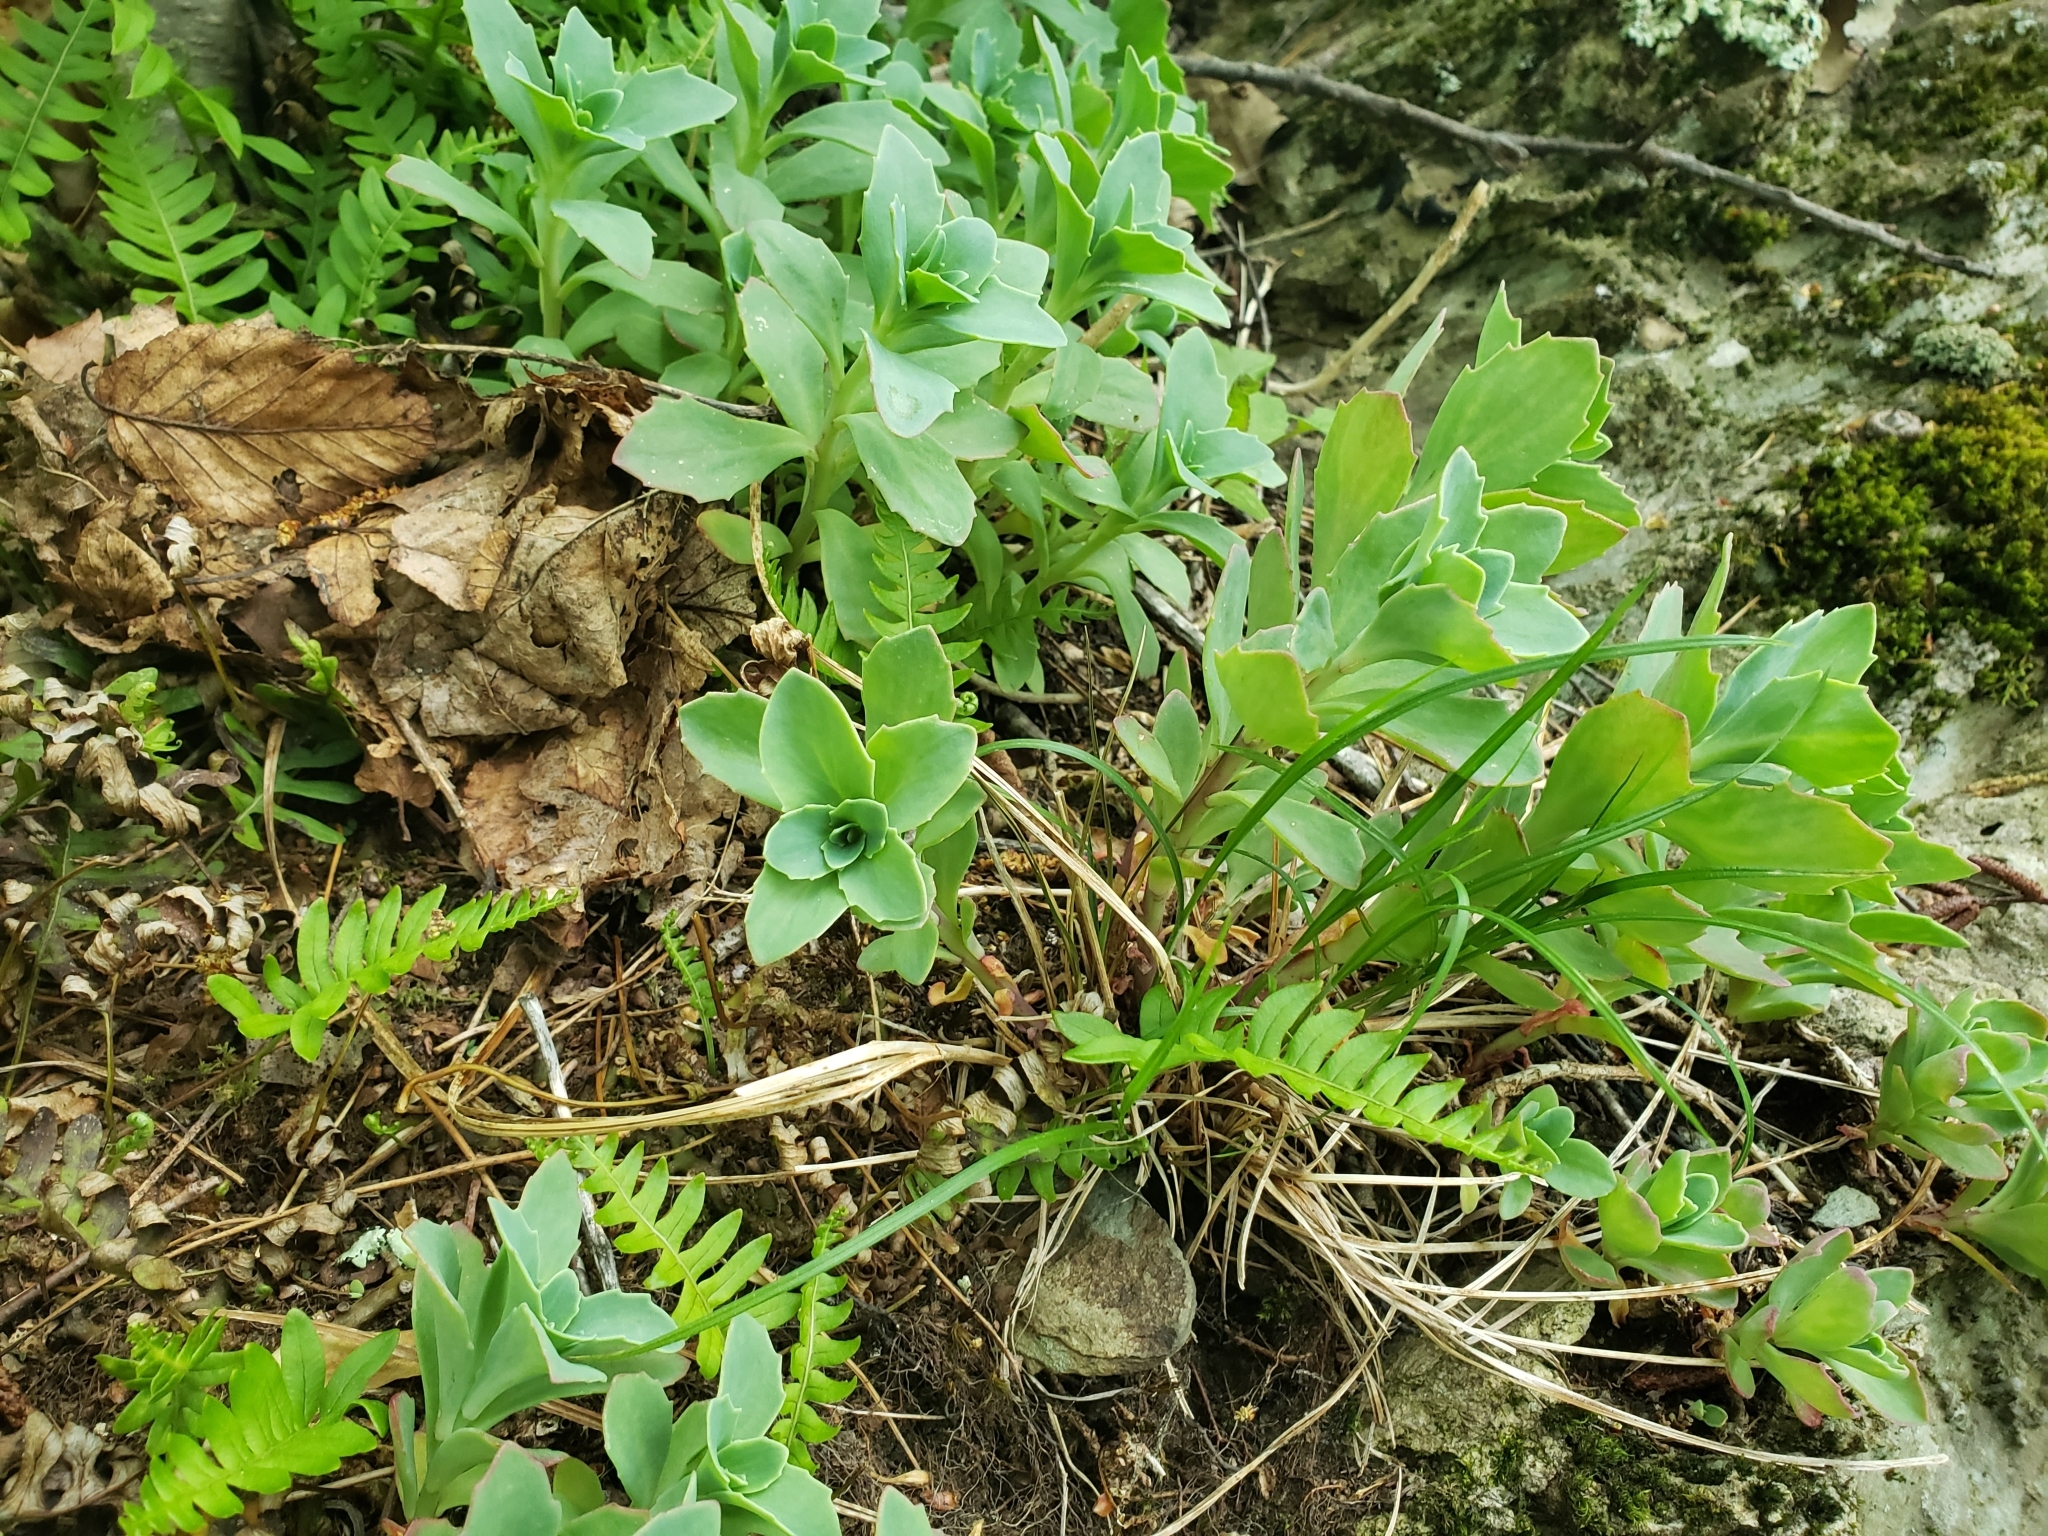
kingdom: Plantae
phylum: Tracheophyta
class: Magnoliopsida
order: Saxifragales
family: Crassulaceae
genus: Hylotelephium
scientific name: Hylotelephium telephioides
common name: Allegheny stonecrop
